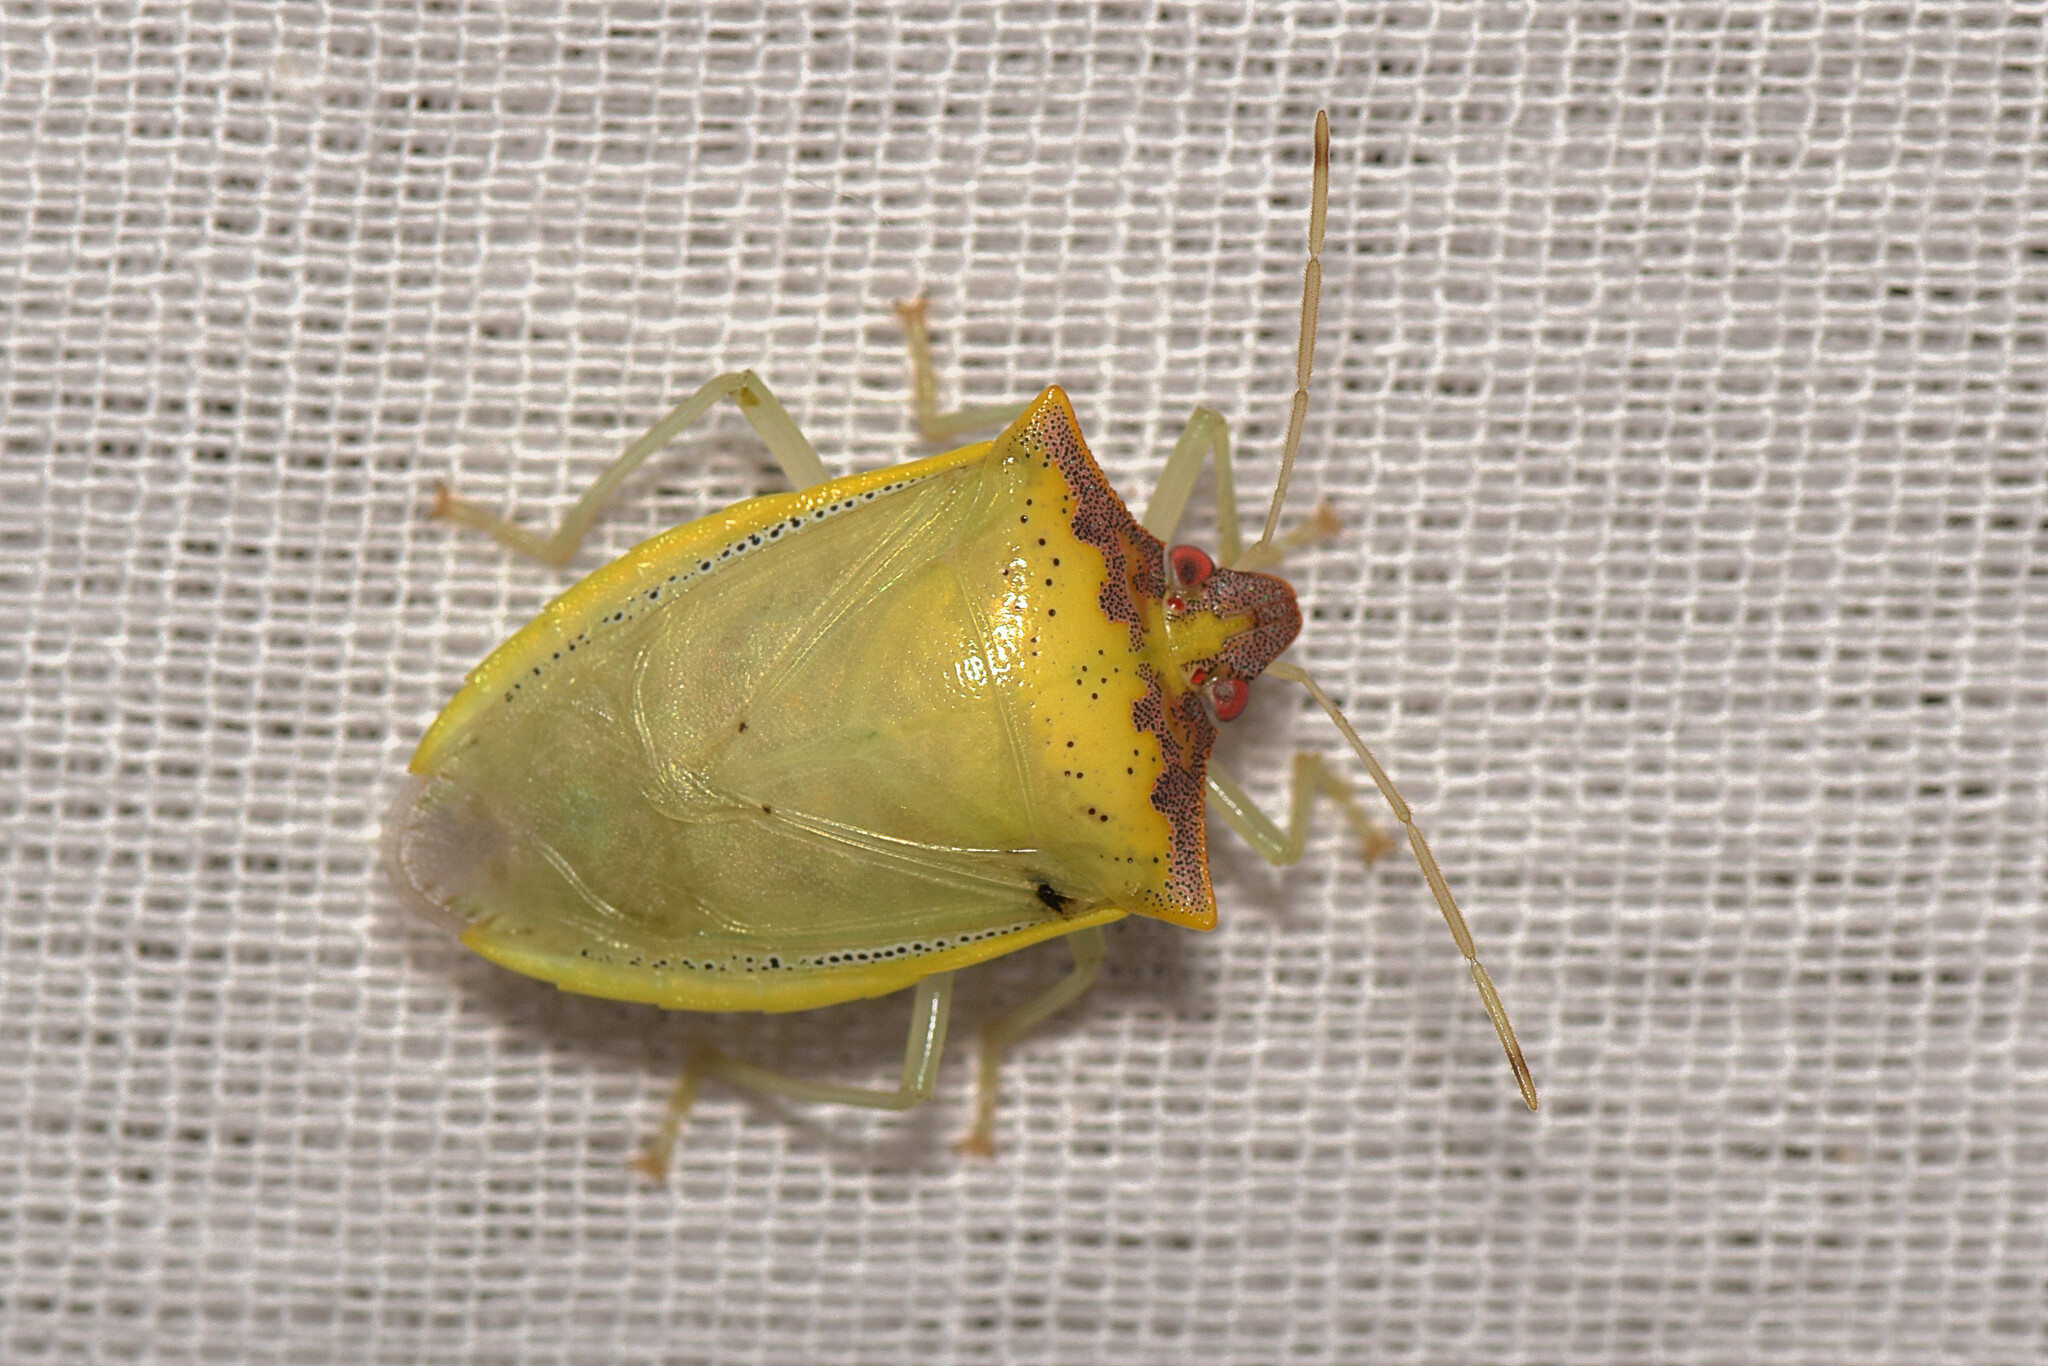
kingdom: Animalia
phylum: Arthropoda
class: Insecta
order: Hemiptera
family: Pentatomidae
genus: Priassus
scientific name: Priassus exemptus
